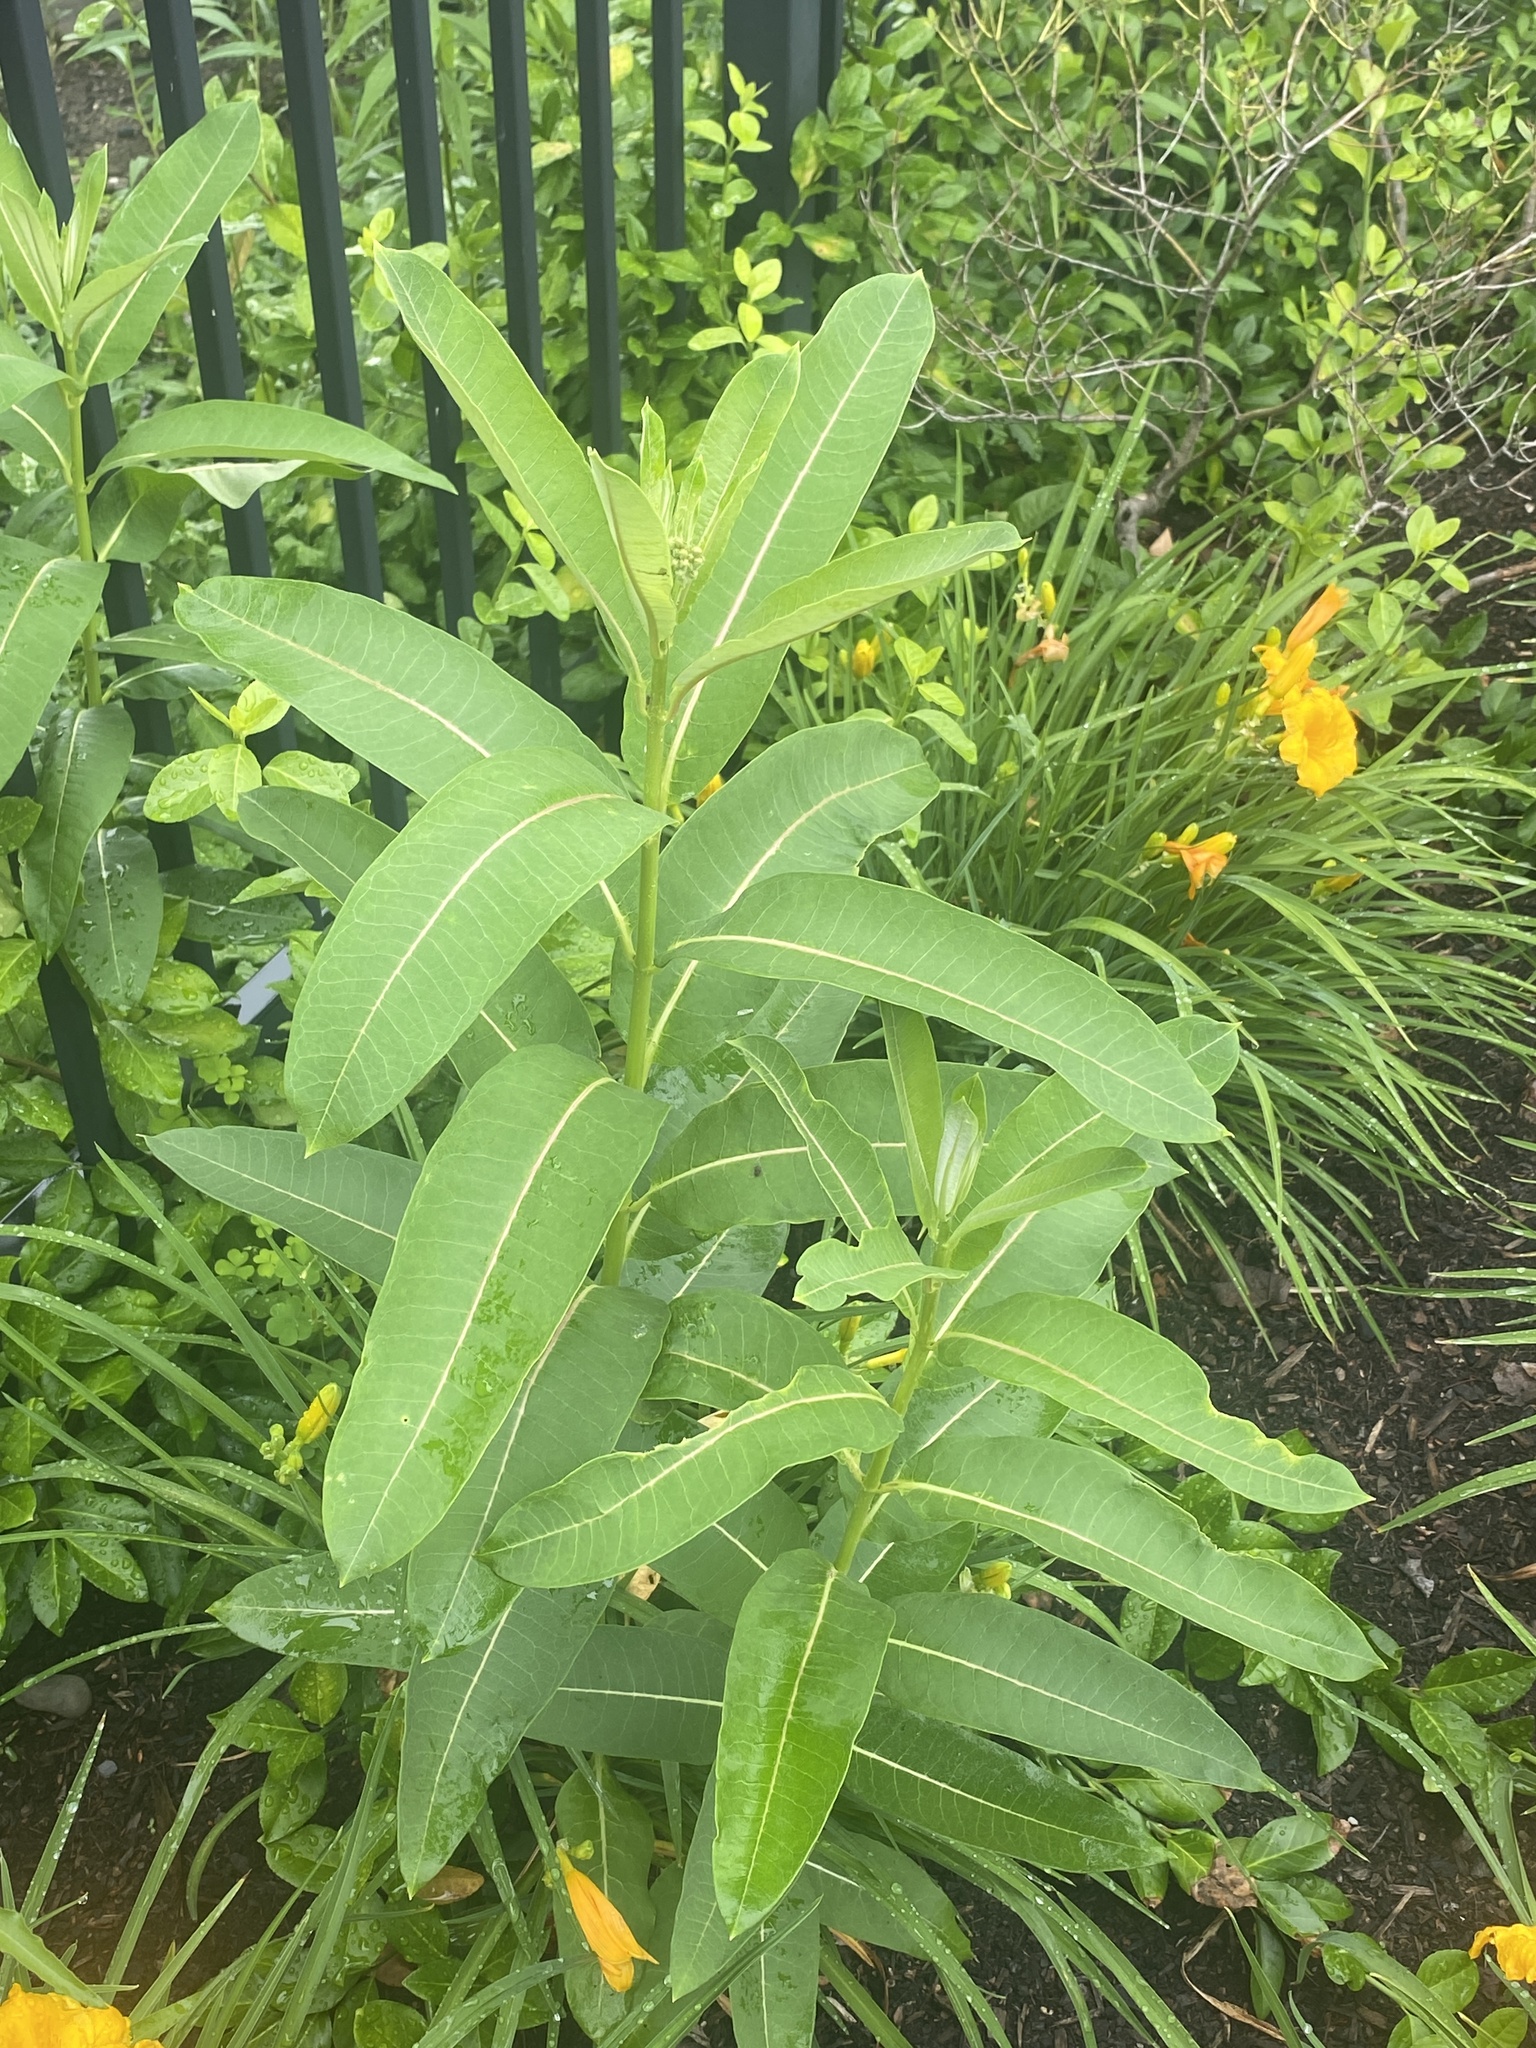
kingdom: Plantae
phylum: Tracheophyta
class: Magnoliopsida
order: Gentianales
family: Apocynaceae
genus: Asclepias
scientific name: Asclepias syriaca
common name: Common milkweed
